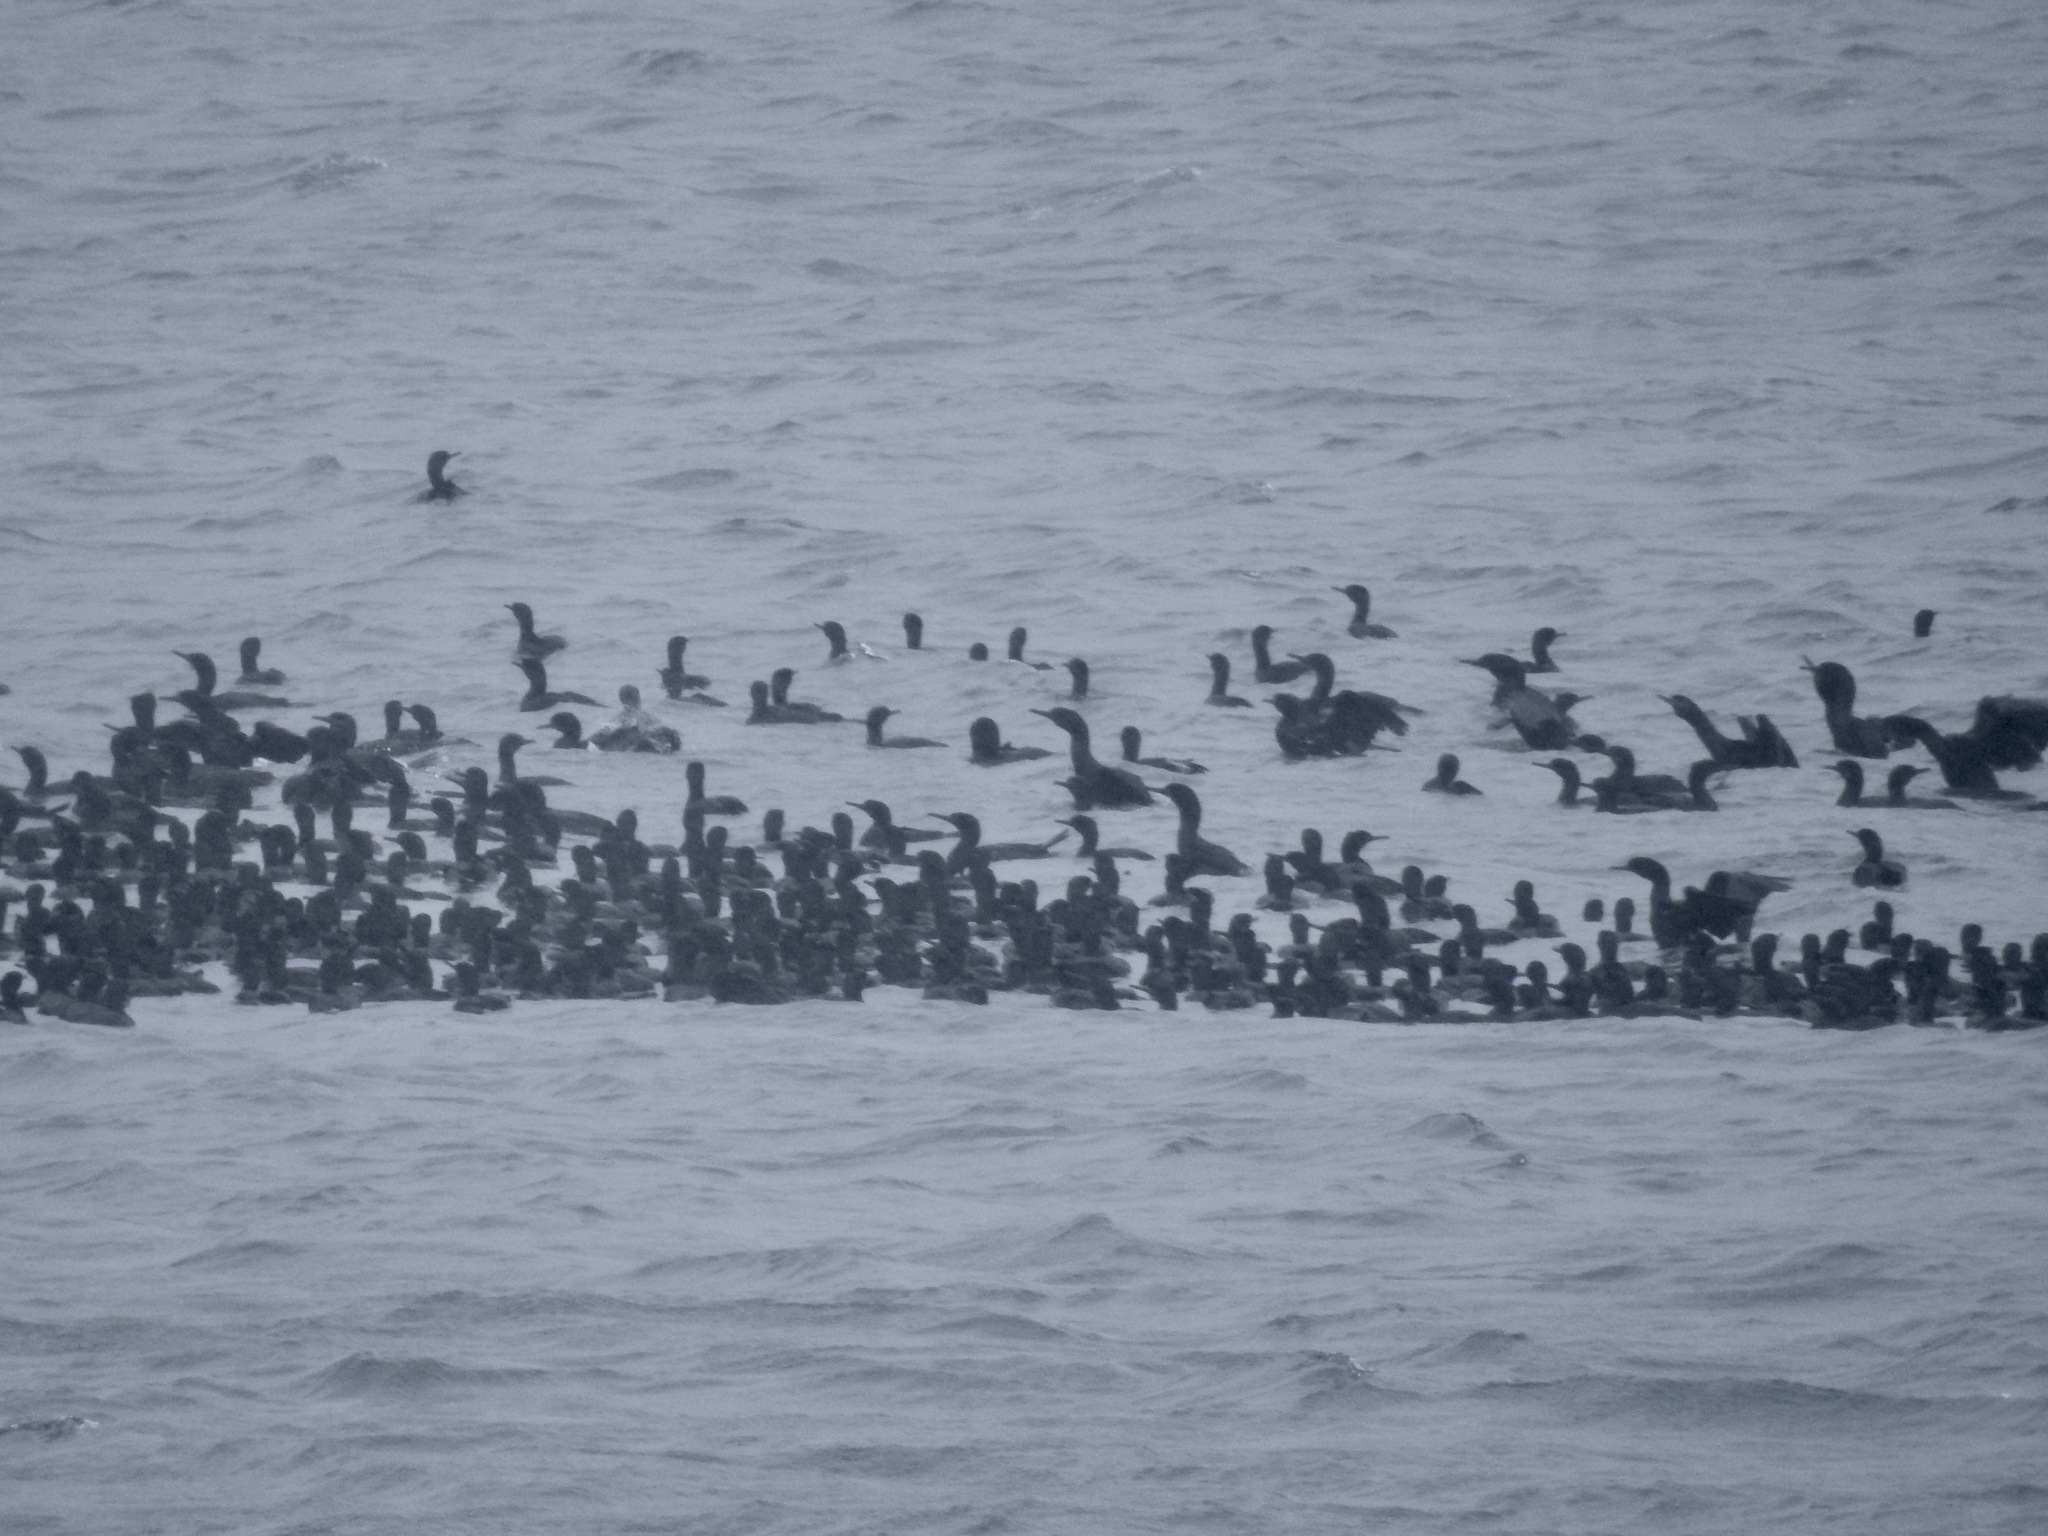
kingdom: Animalia
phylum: Chordata
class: Aves
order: Suliformes
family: Phalacrocoracidae
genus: Urile
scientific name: Urile penicillatus
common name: Brandt's cormorant
